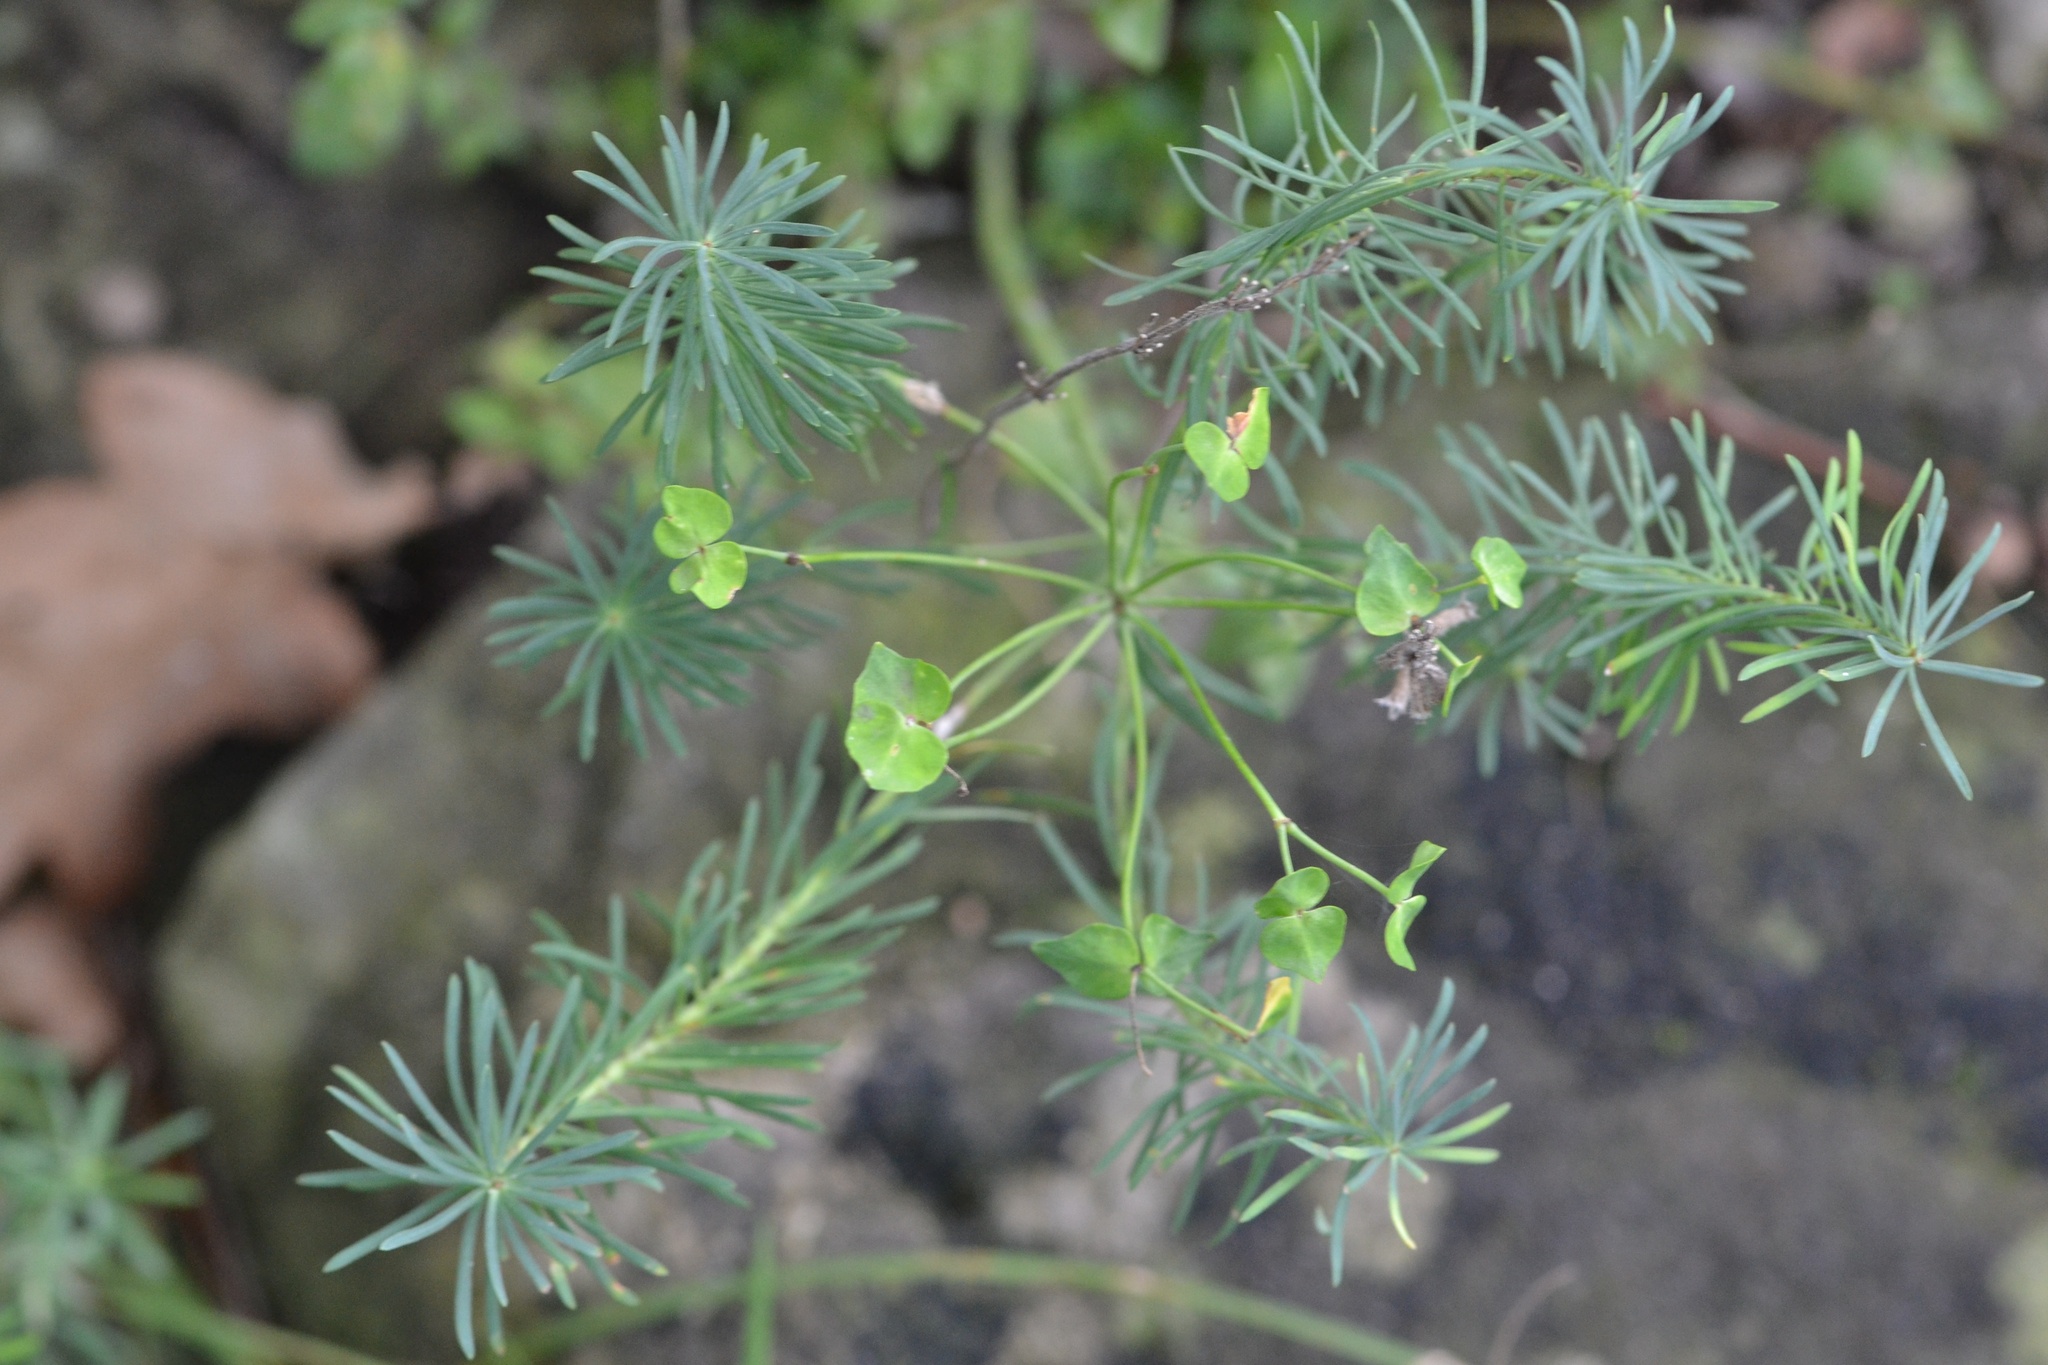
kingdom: Plantae
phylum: Tracheophyta
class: Magnoliopsida
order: Malpighiales
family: Euphorbiaceae
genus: Euphorbia
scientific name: Euphorbia cyparissias
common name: Cypress spurge
